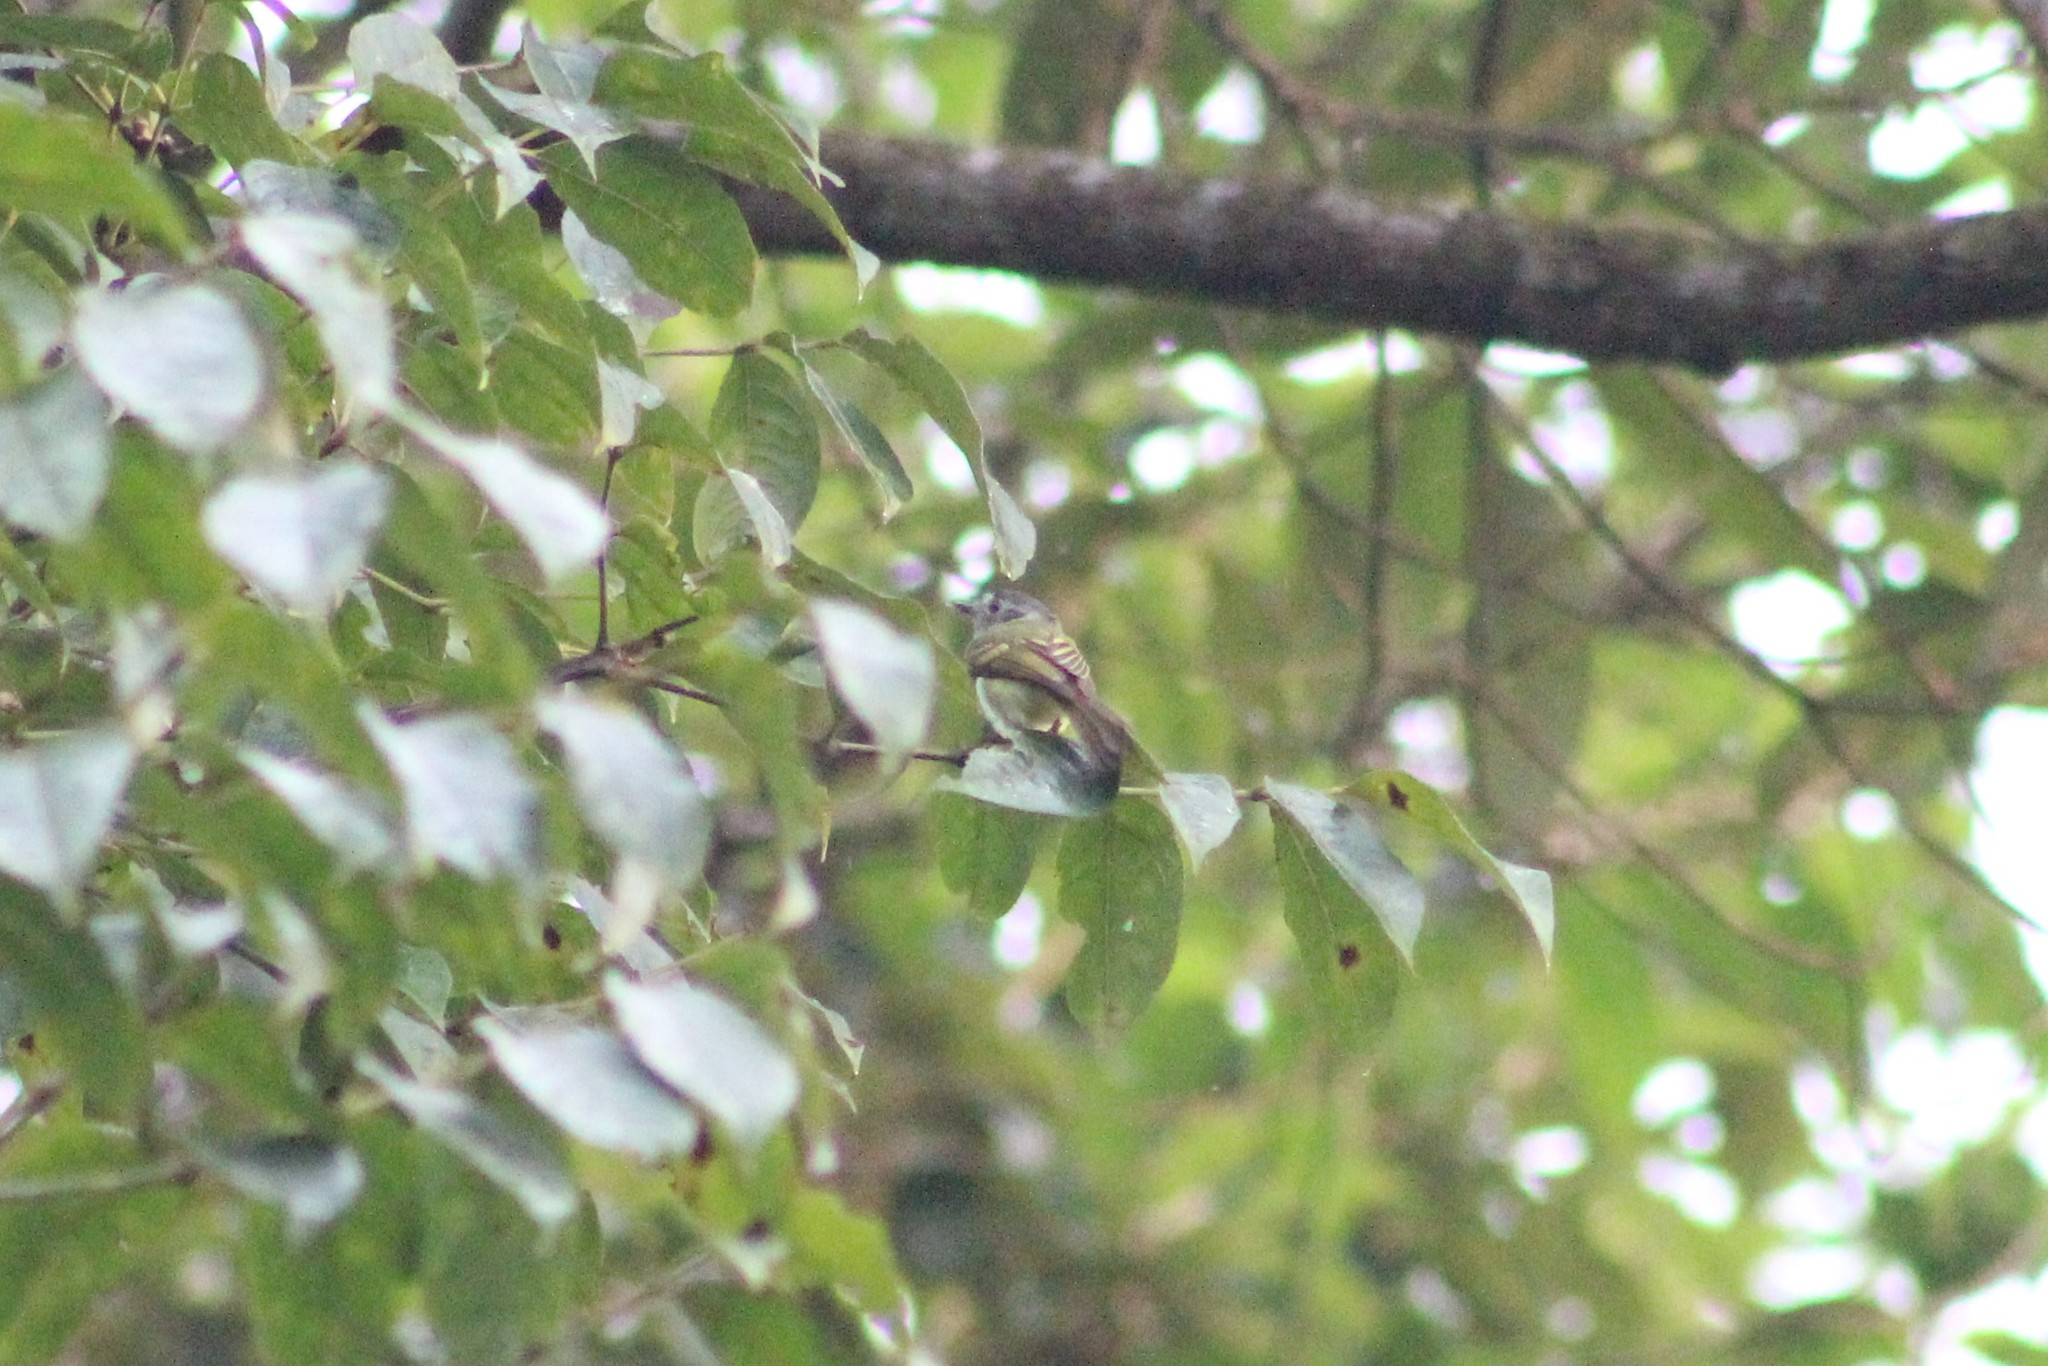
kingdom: Animalia
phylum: Chordata
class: Aves
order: Passeriformes
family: Tyrannidae
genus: Phylloscartes
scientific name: Phylloscartes ophthalmicus
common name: Marble-faced bristle-tyrant
